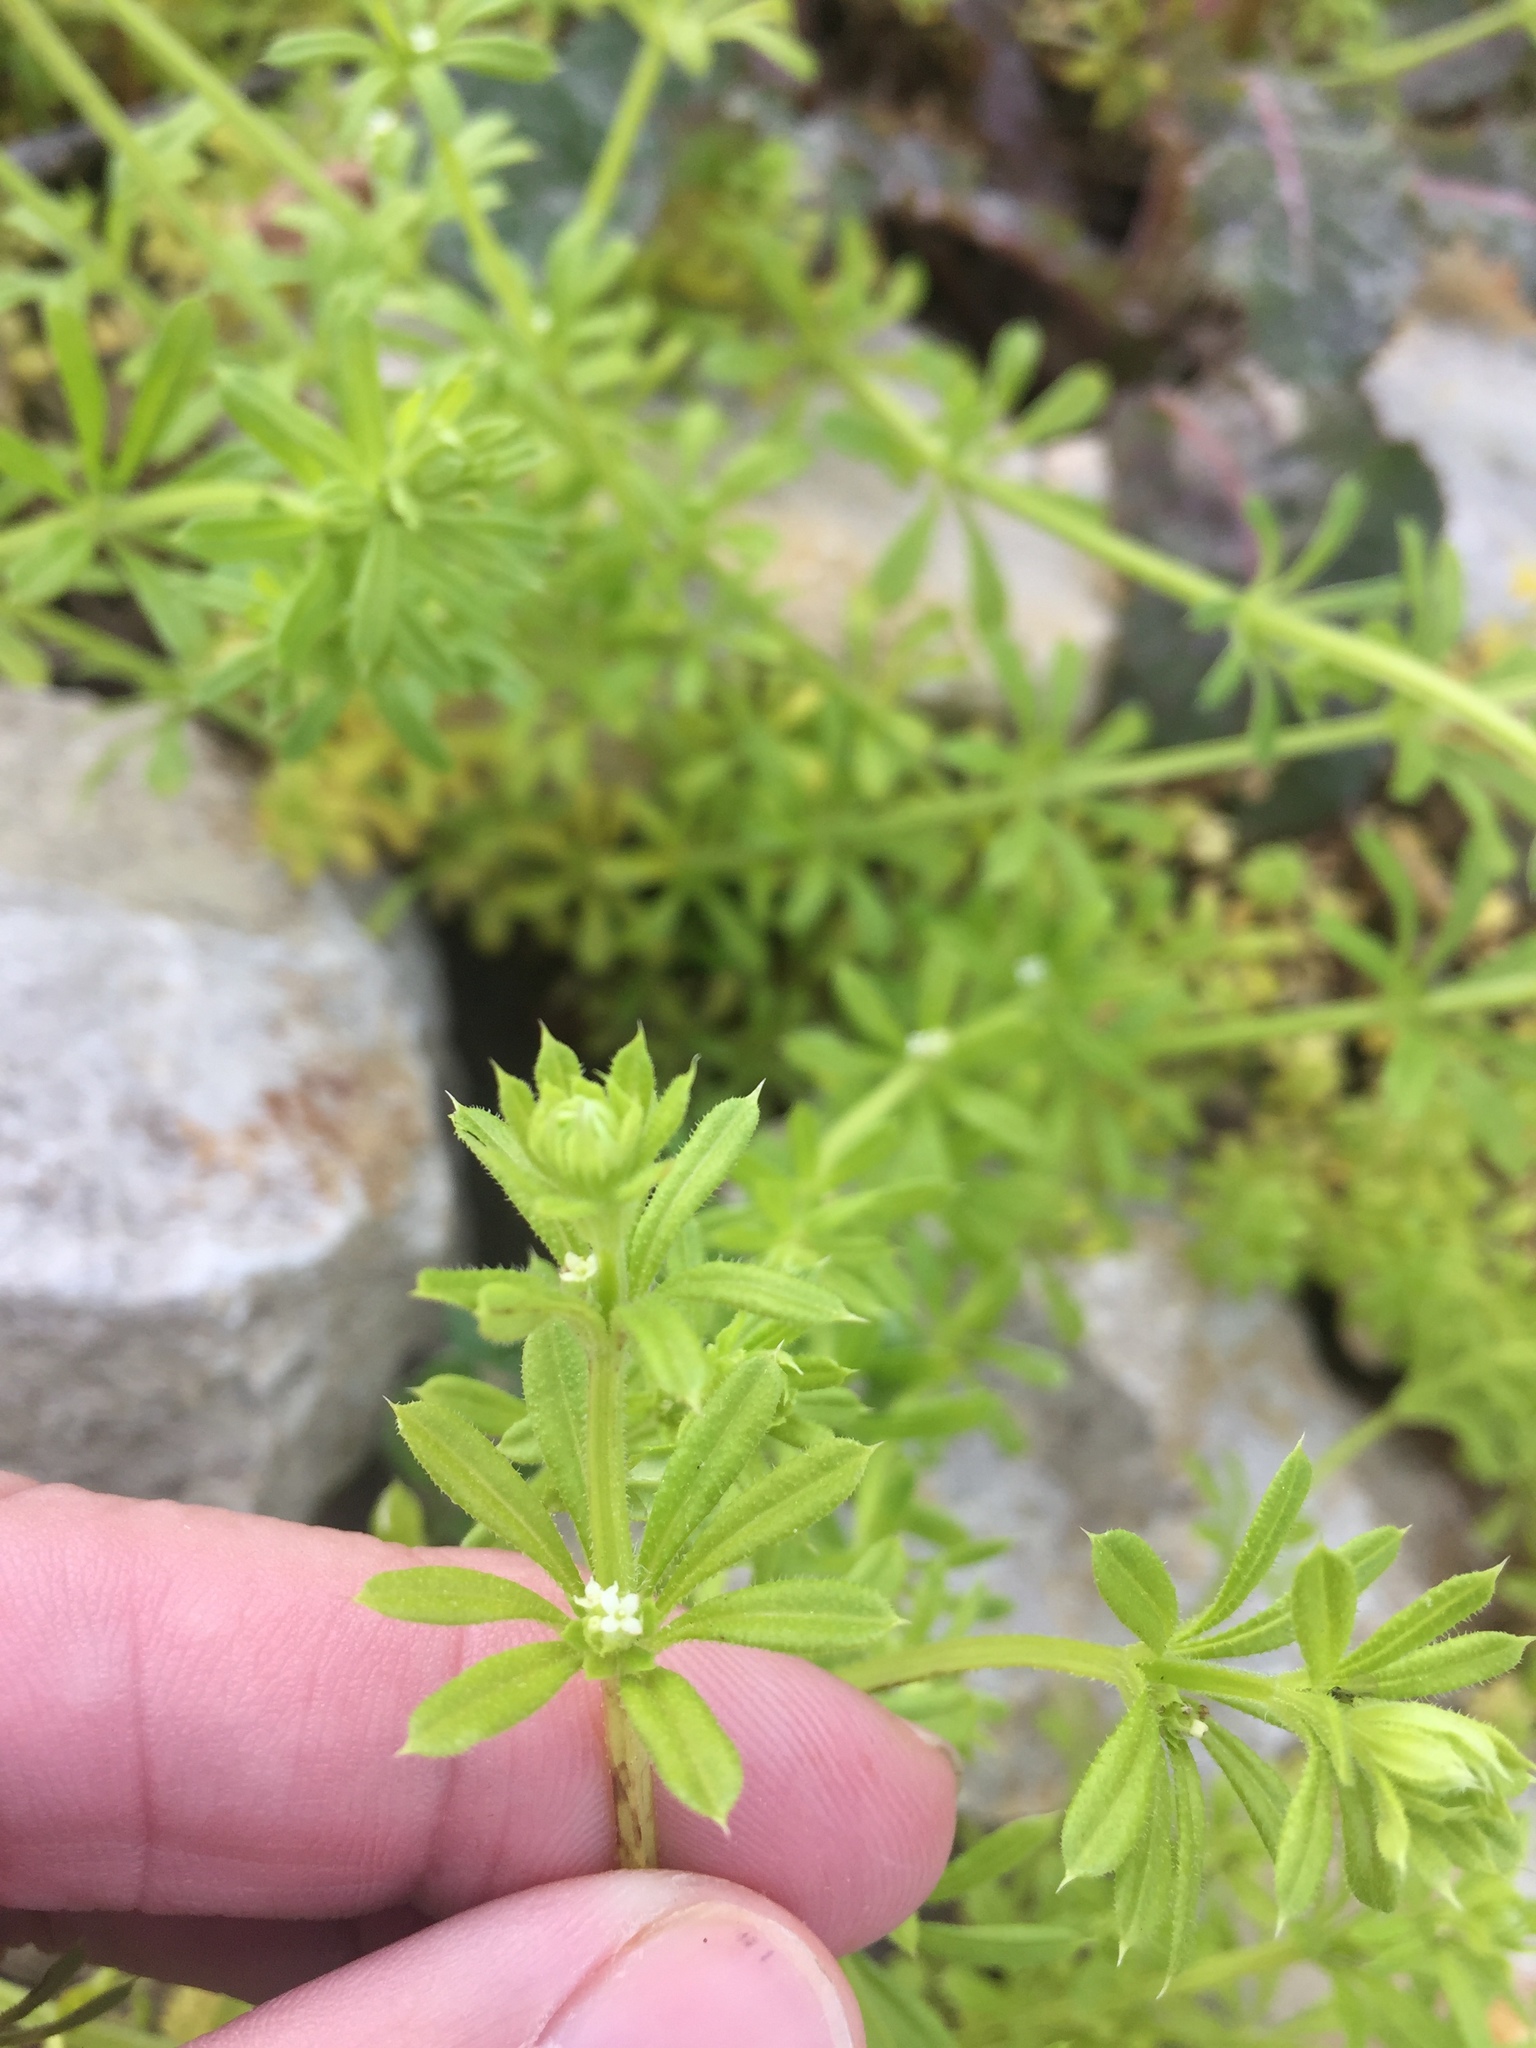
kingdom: Plantae
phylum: Tracheophyta
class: Magnoliopsida
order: Gentianales
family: Rubiaceae
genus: Galium
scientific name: Galium aparine
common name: Cleavers
